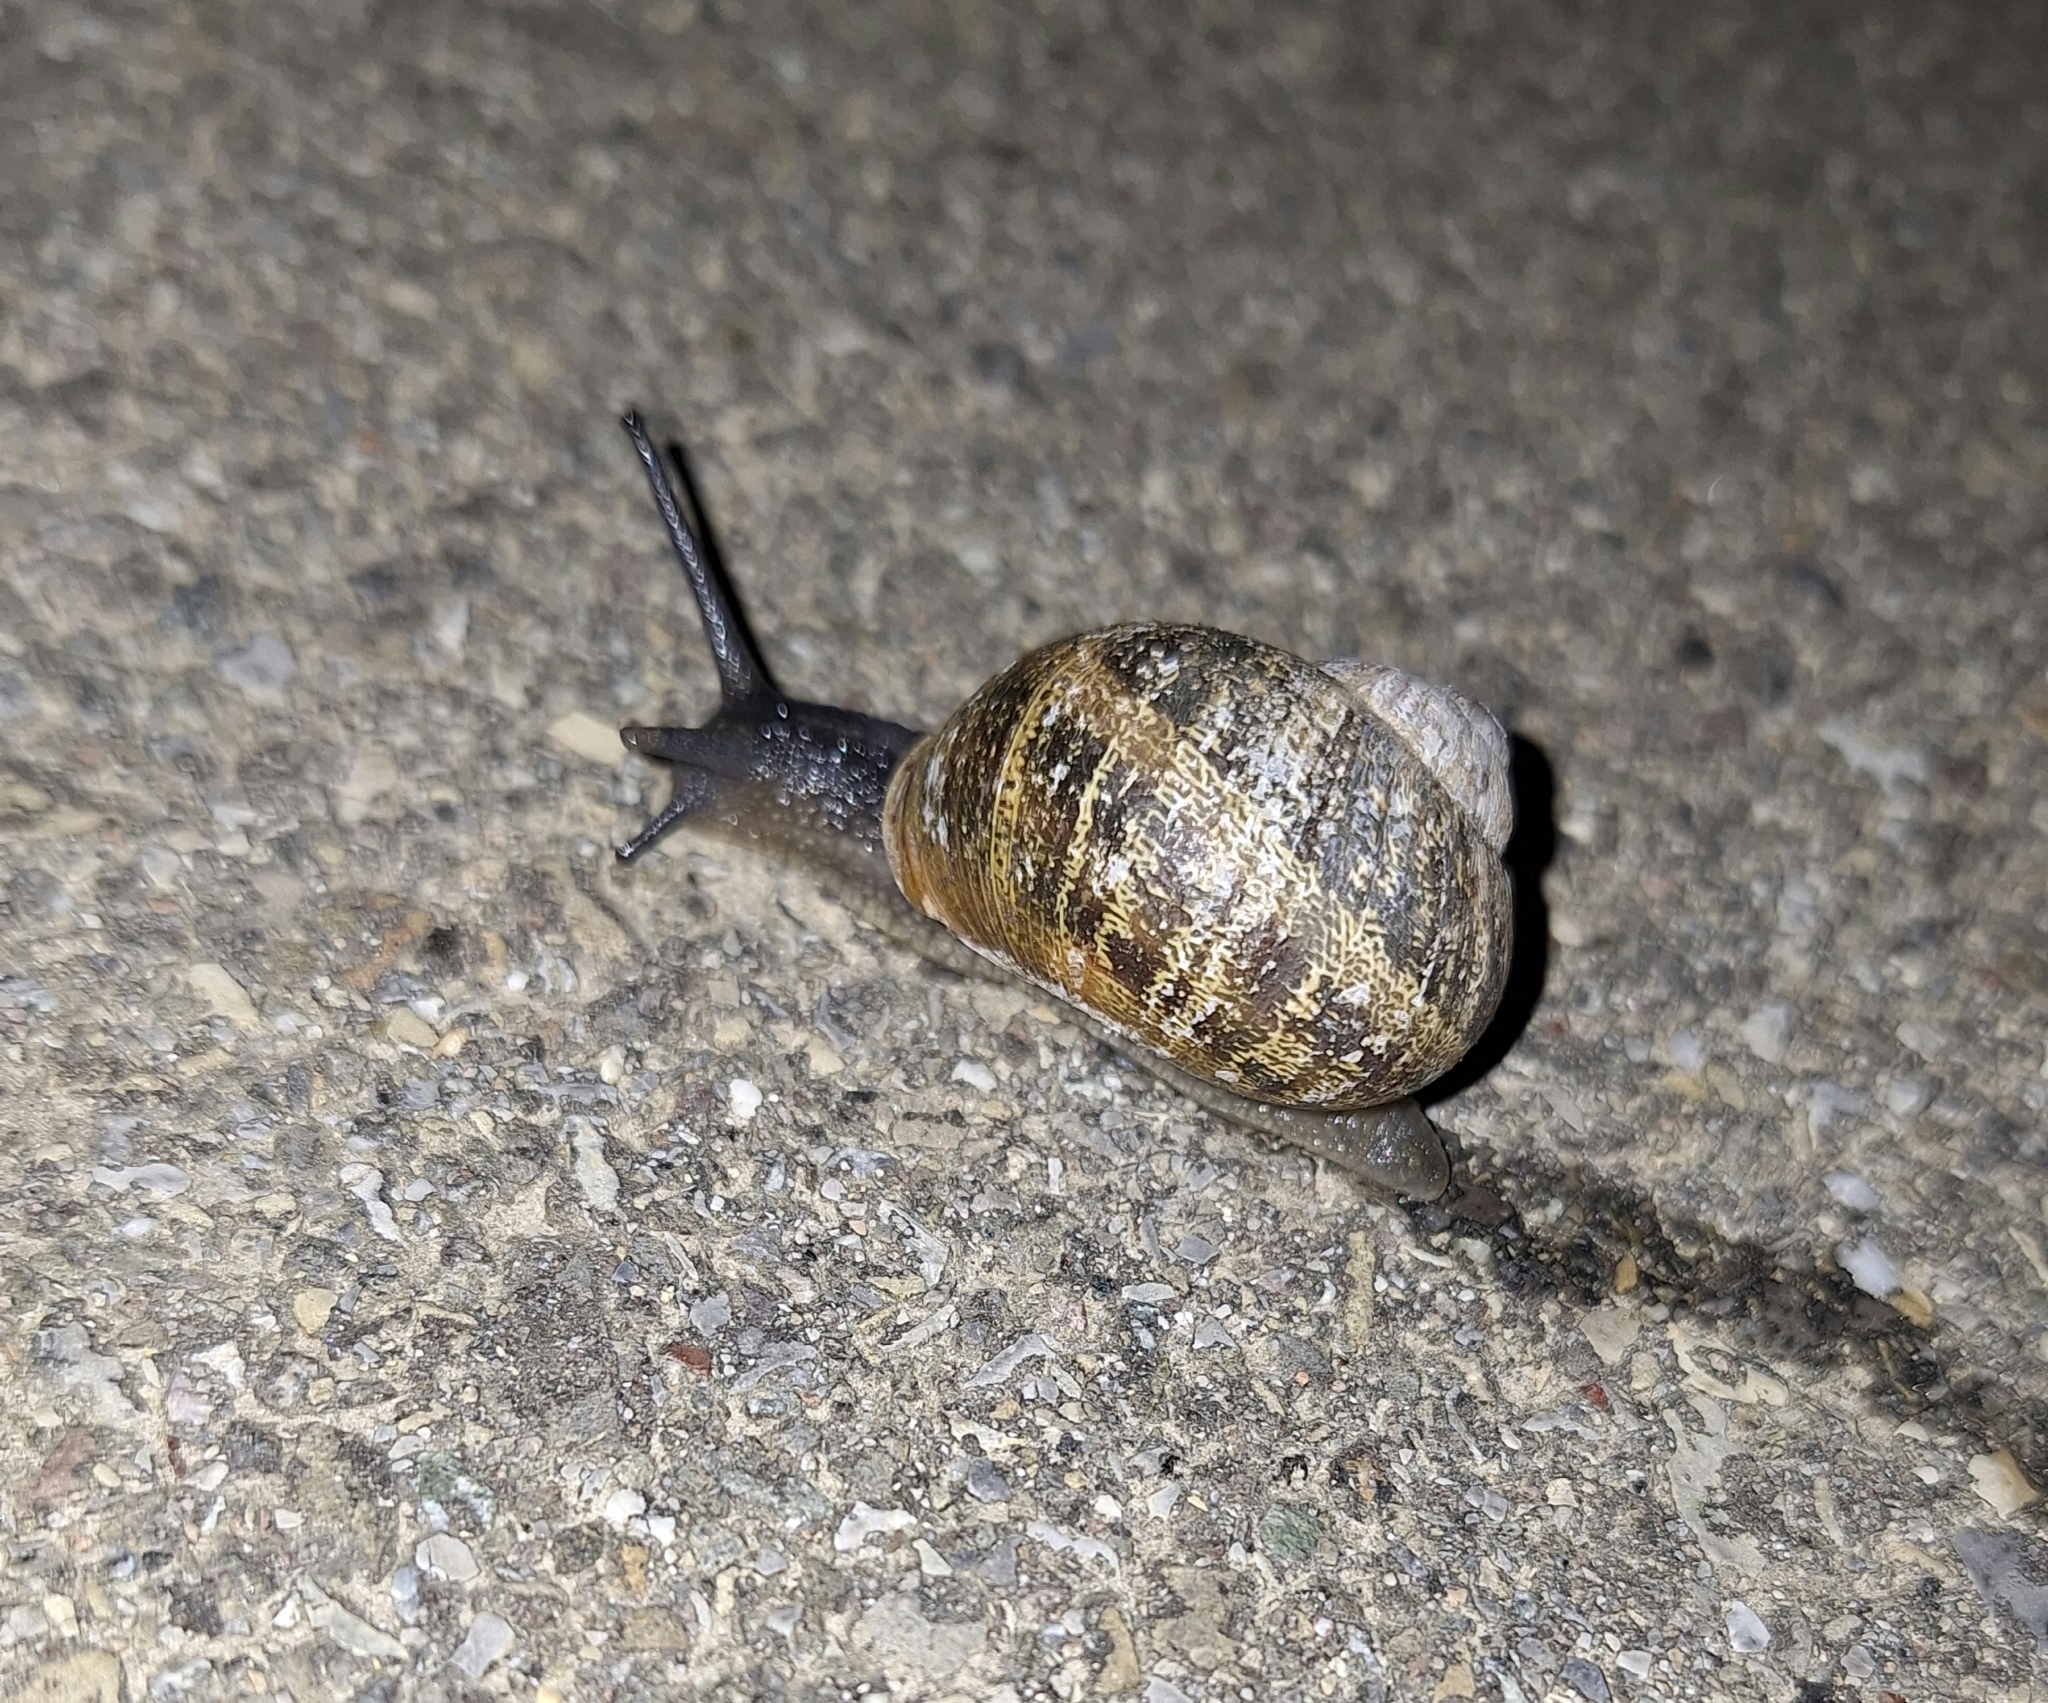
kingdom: Animalia
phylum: Mollusca
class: Gastropoda
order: Stylommatophora
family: Helicidae
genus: Cornu
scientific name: Cornu aspersum
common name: Brown garden snail
